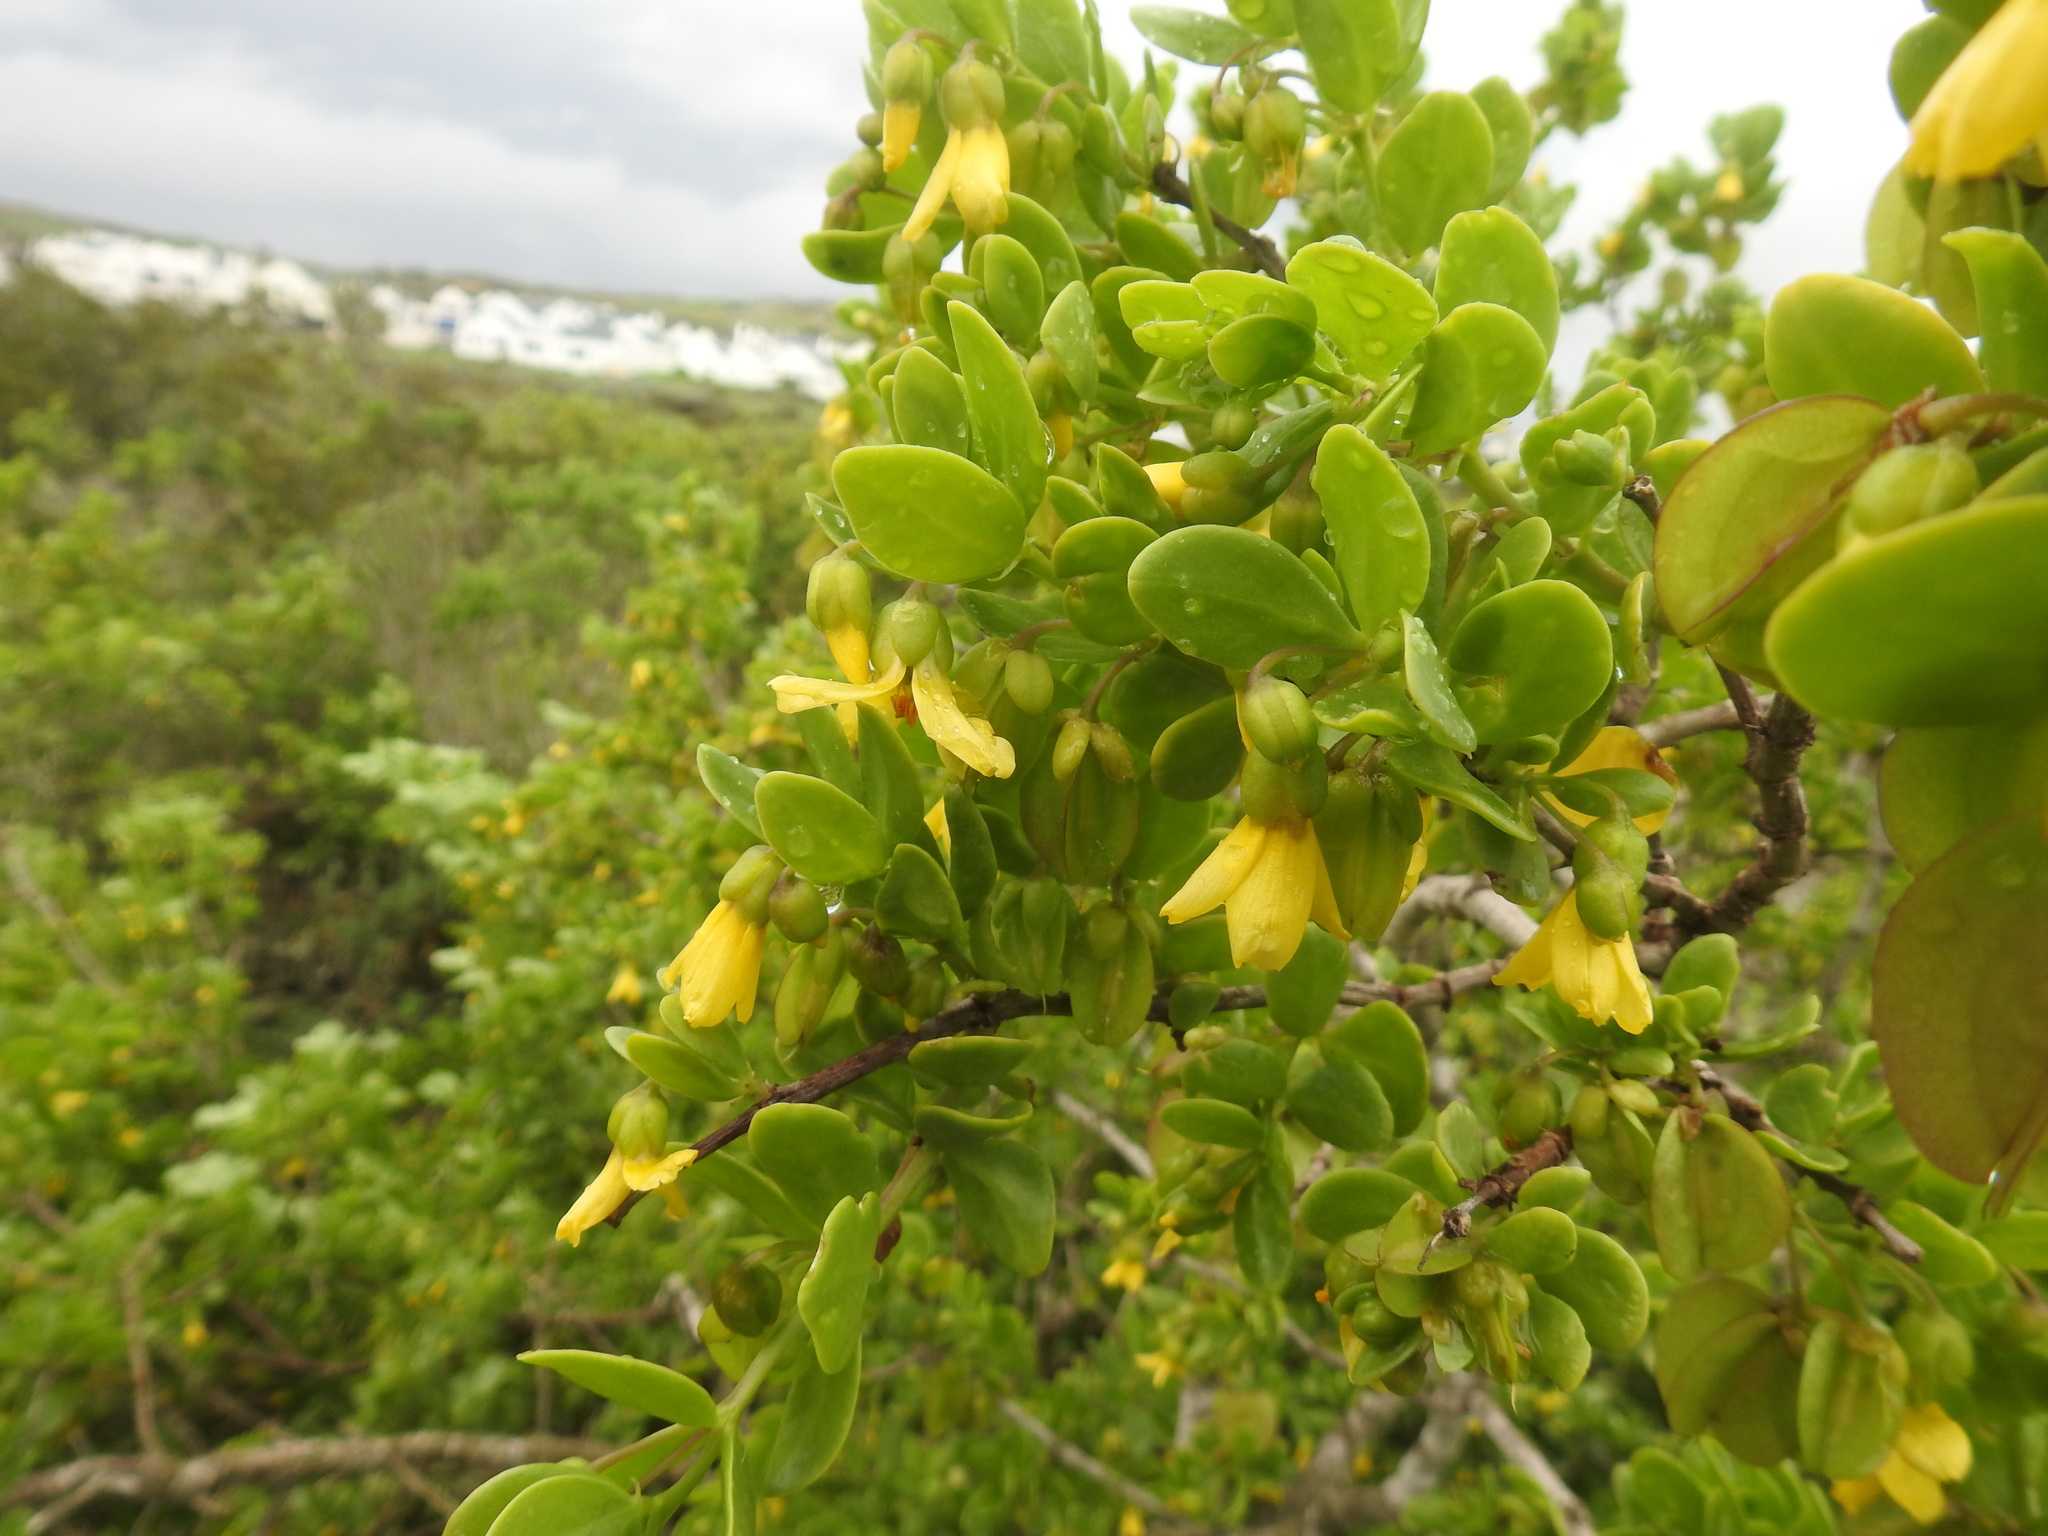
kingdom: Plantae
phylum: Tracheophyta
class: Magnoliopsida
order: Zygophyllales
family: Zygophyllaceae
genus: Roepera
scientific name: Roepera morgsana
